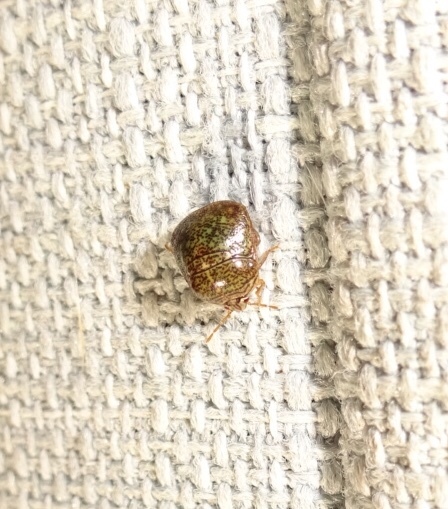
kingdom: Animalia
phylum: Arthropoda
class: Insecta
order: Hemiptera
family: Plataspidae
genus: Megacopta
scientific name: Megacopta cribraria
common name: Bean plataspid
